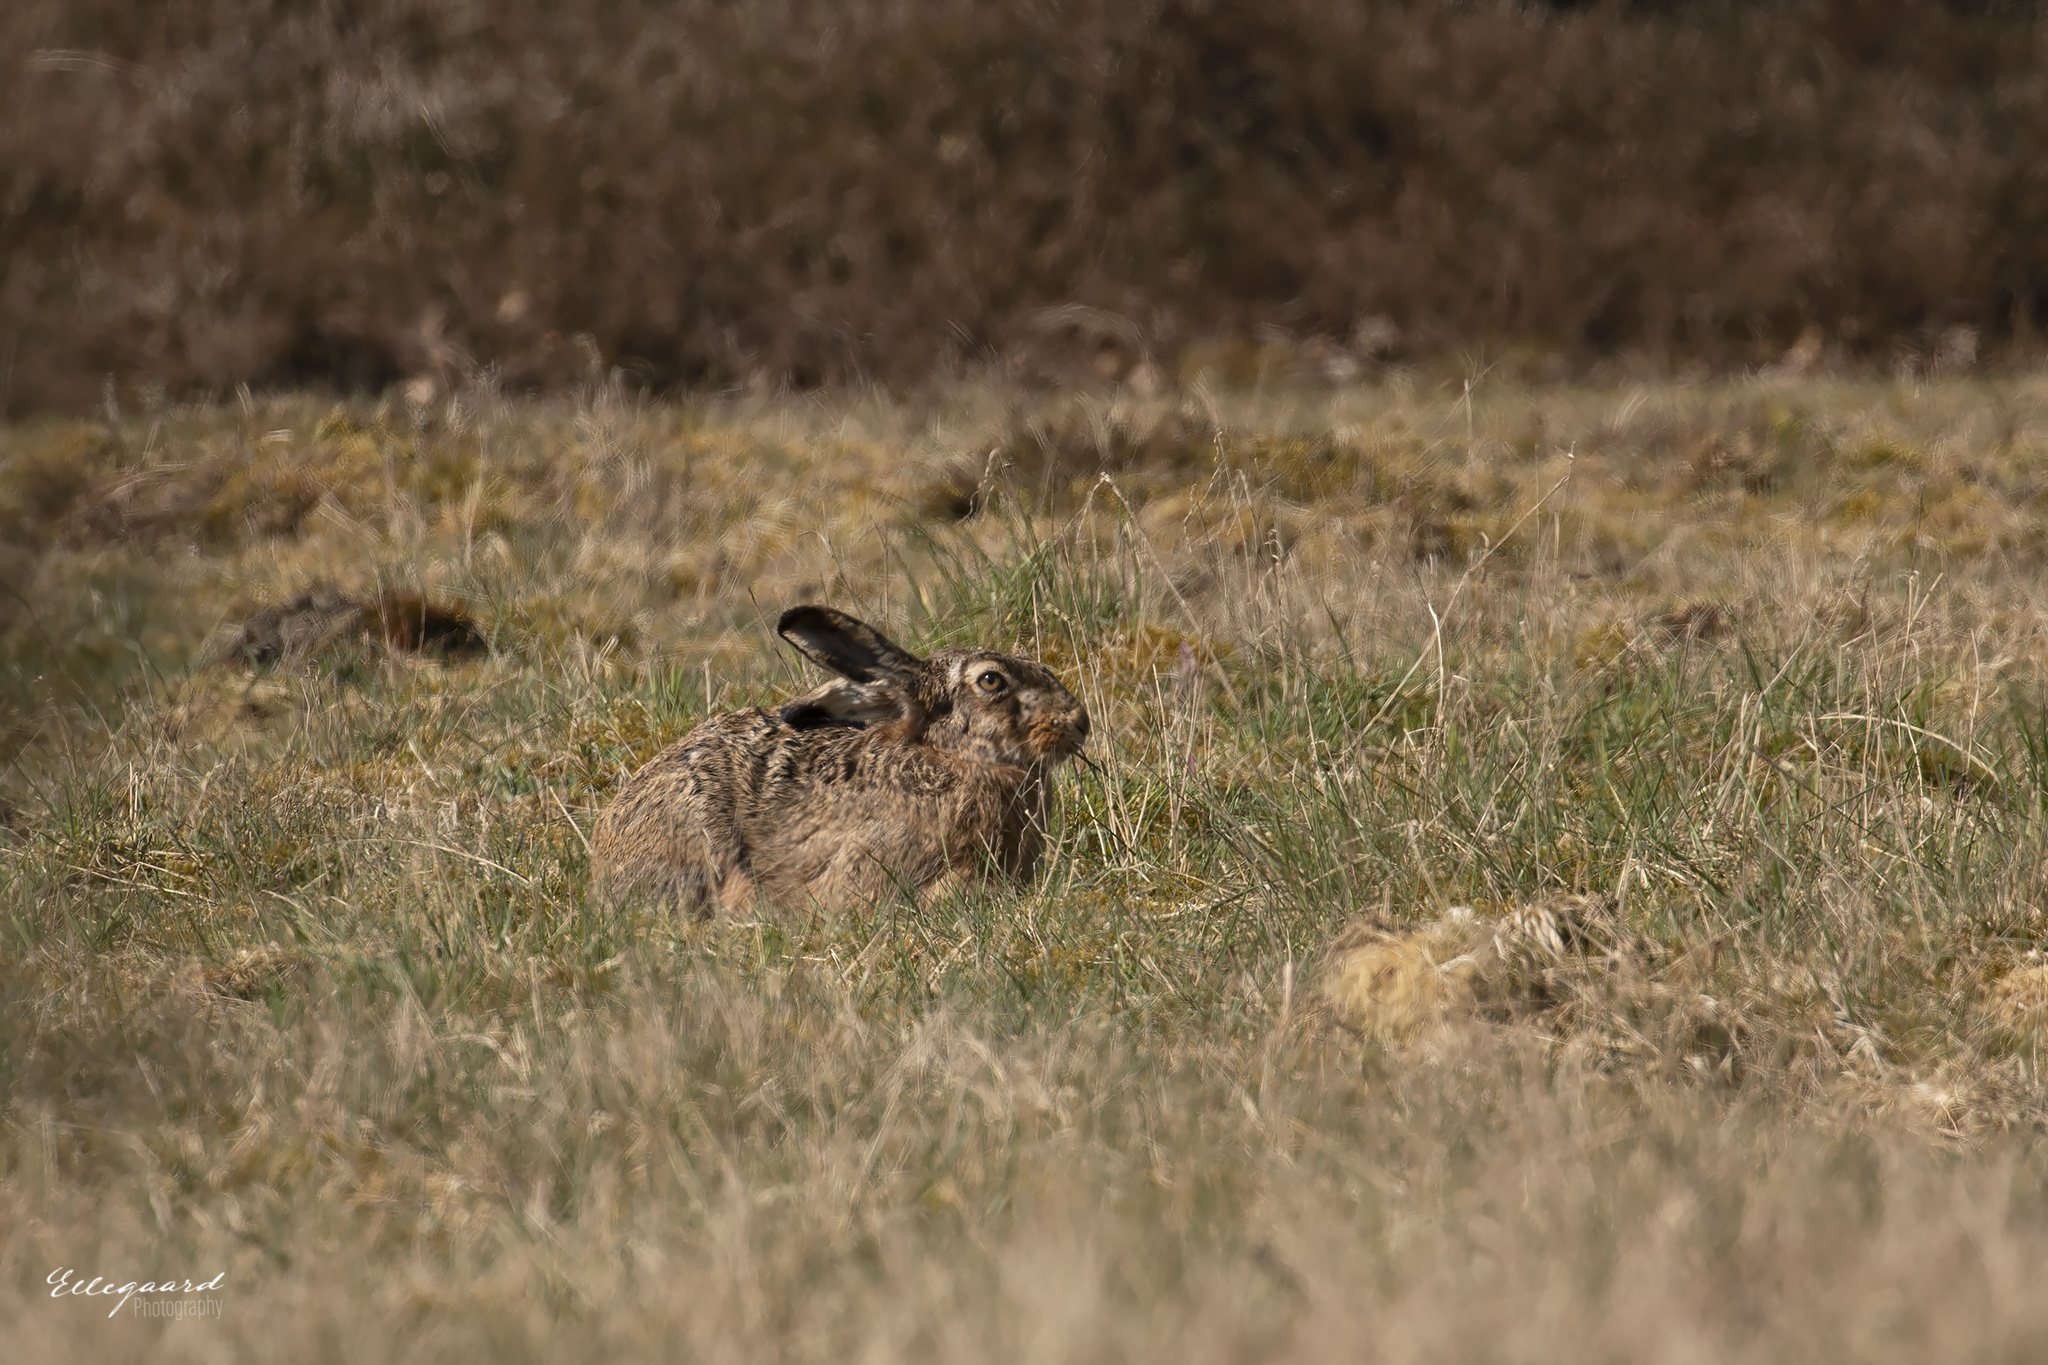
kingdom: Animalia
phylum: Chordata
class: Mammalia
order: Lagomorpha
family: Leporidae
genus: Lepus
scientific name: Lepus europaeus
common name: European hare
